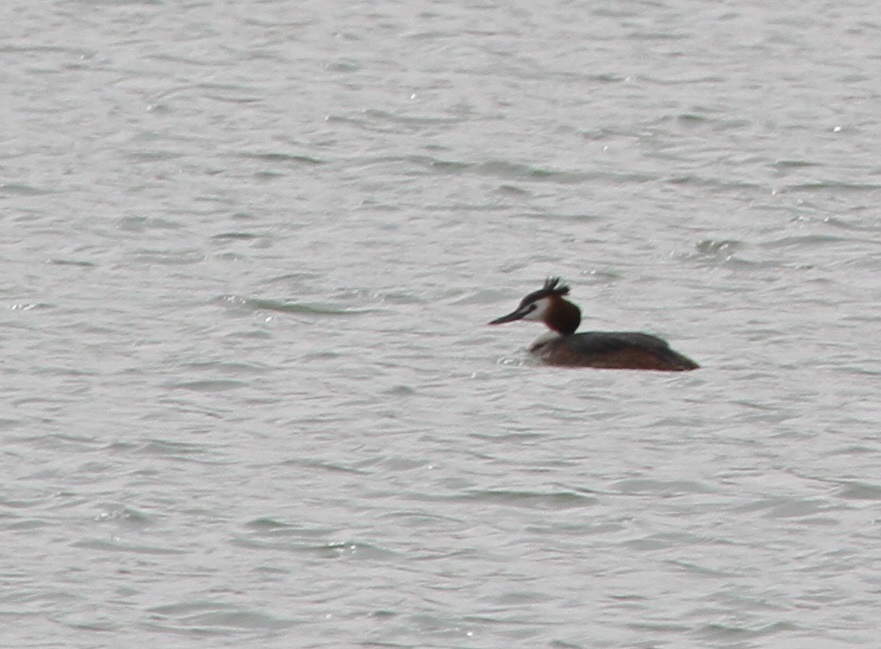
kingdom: Animalia
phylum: Chordata
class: Aves
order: Podicipediformes
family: Podicipedidae
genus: Podiceps
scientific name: Podiceps cristatus
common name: Great crested grebe
